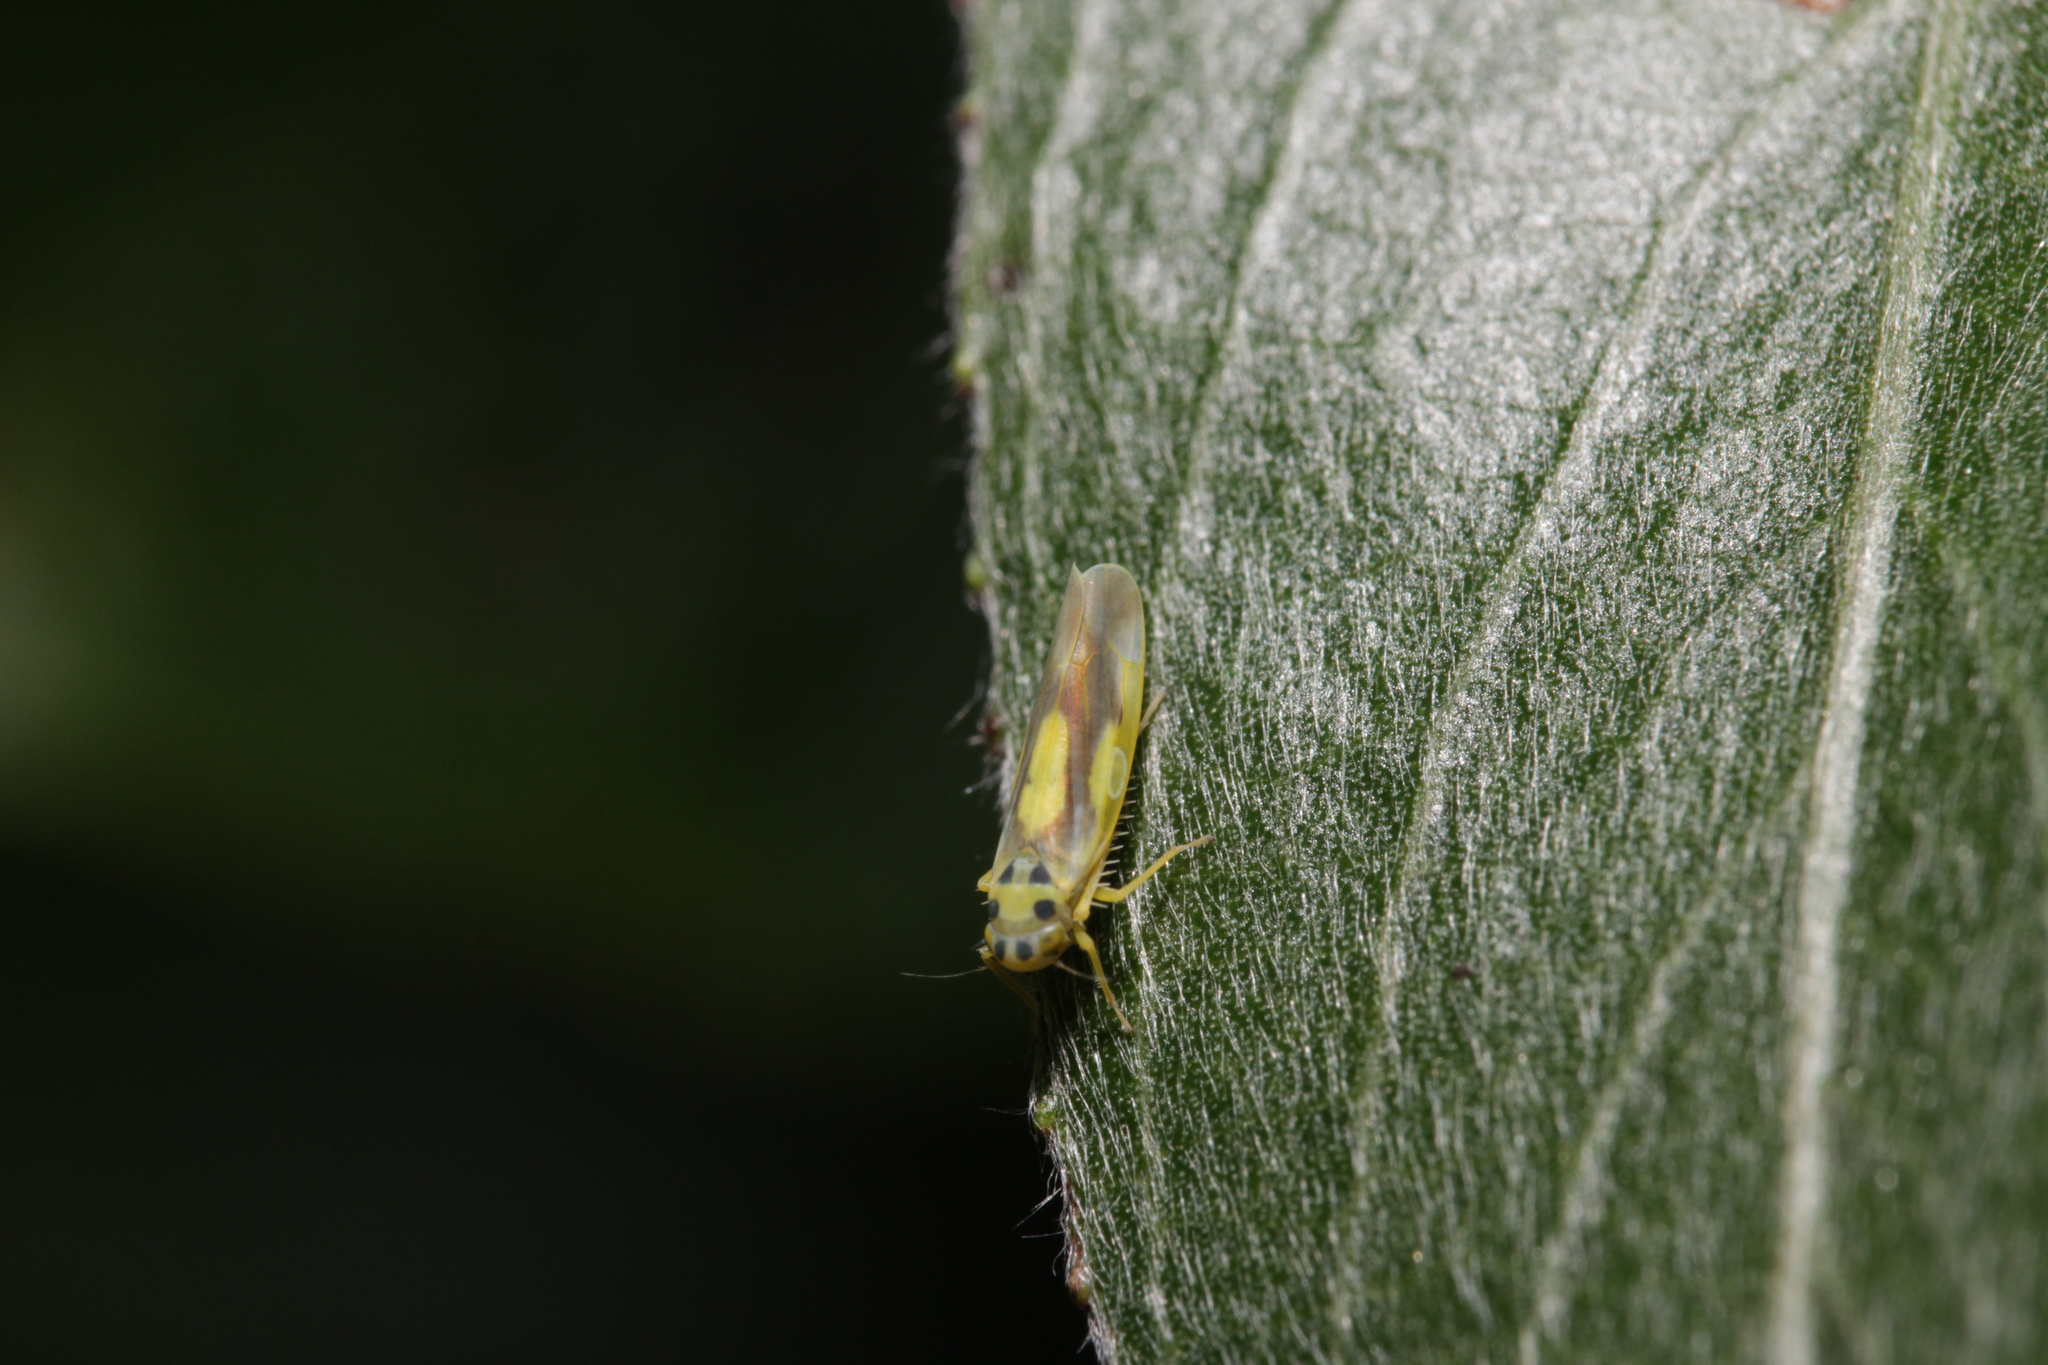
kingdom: Animalia
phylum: Arthropoda
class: Insecta
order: Hemiptera
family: Cicadellidae
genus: Eupteryx
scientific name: Eupteryx heydenii
